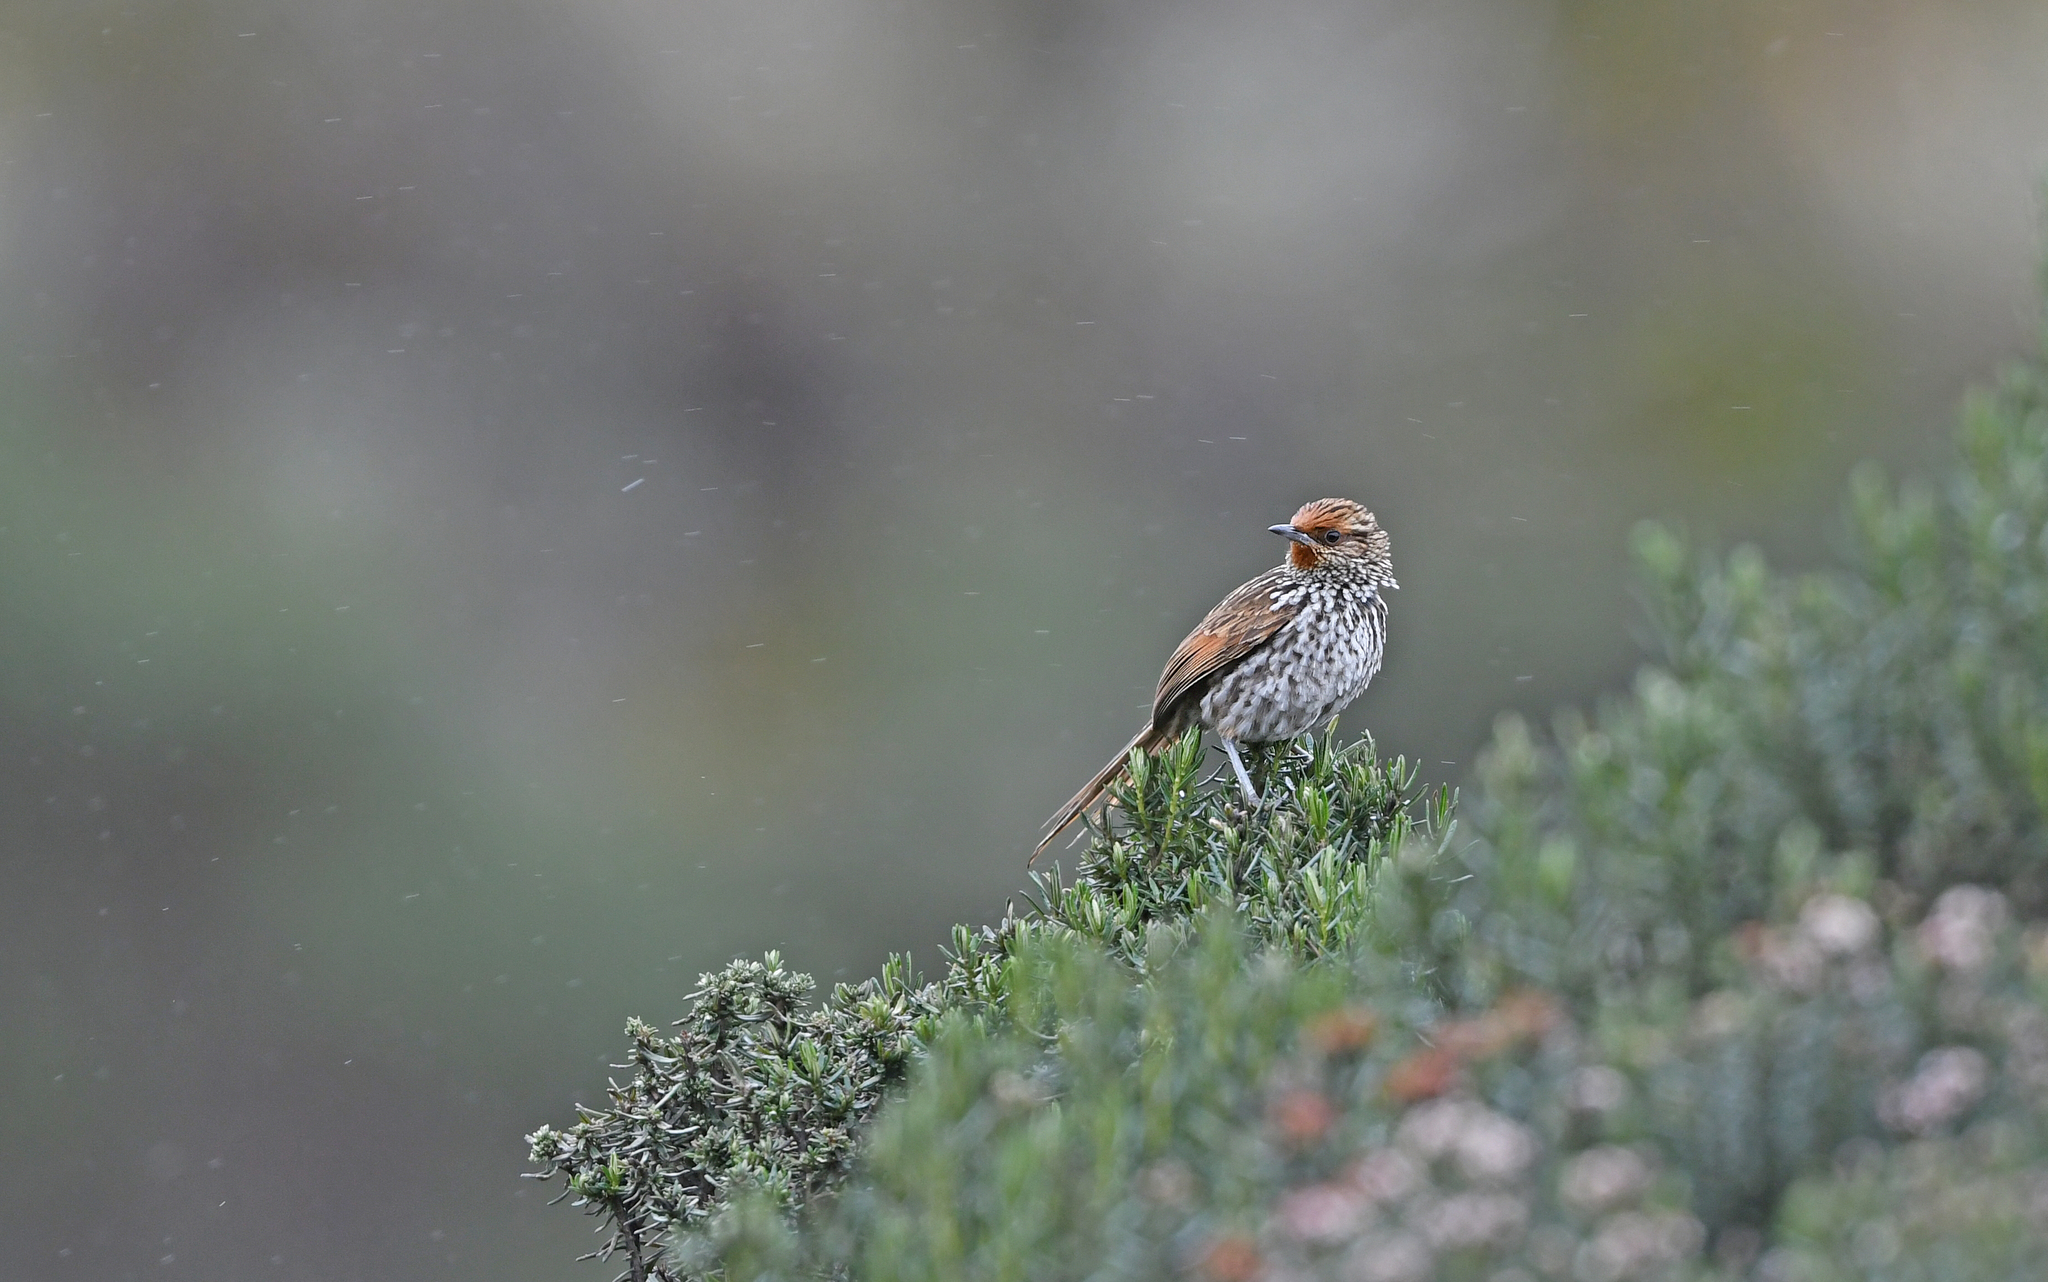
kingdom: Animalia
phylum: Chordata
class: Aves
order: Passeriformes
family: Furnariidae
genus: Asthenes
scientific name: Asthenes flammulata
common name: Many-striped canastero
